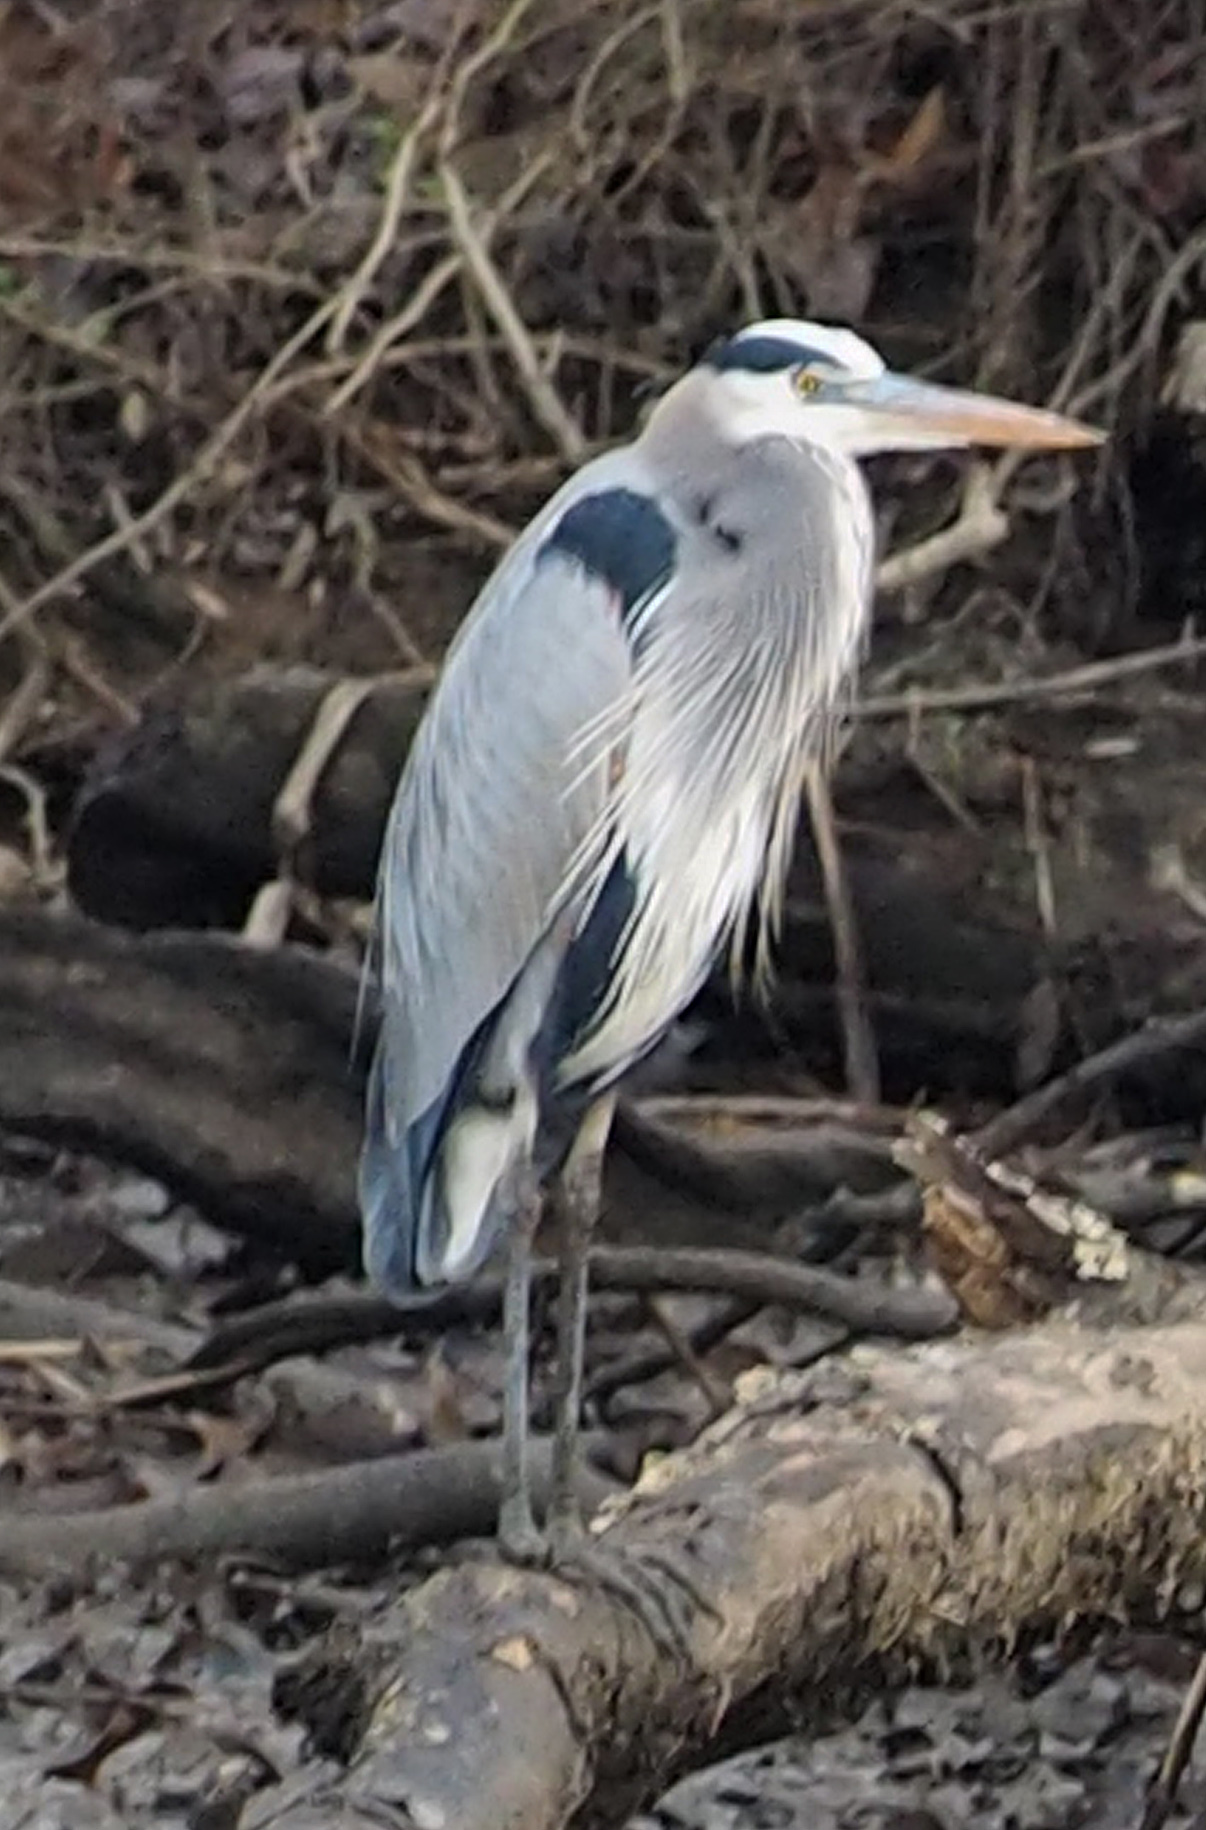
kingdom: Animalia
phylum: Chordata
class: Aves
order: Pelecaniformes
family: Ardeidae
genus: Ardea
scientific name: Ardea herodias
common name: Great blue heron
